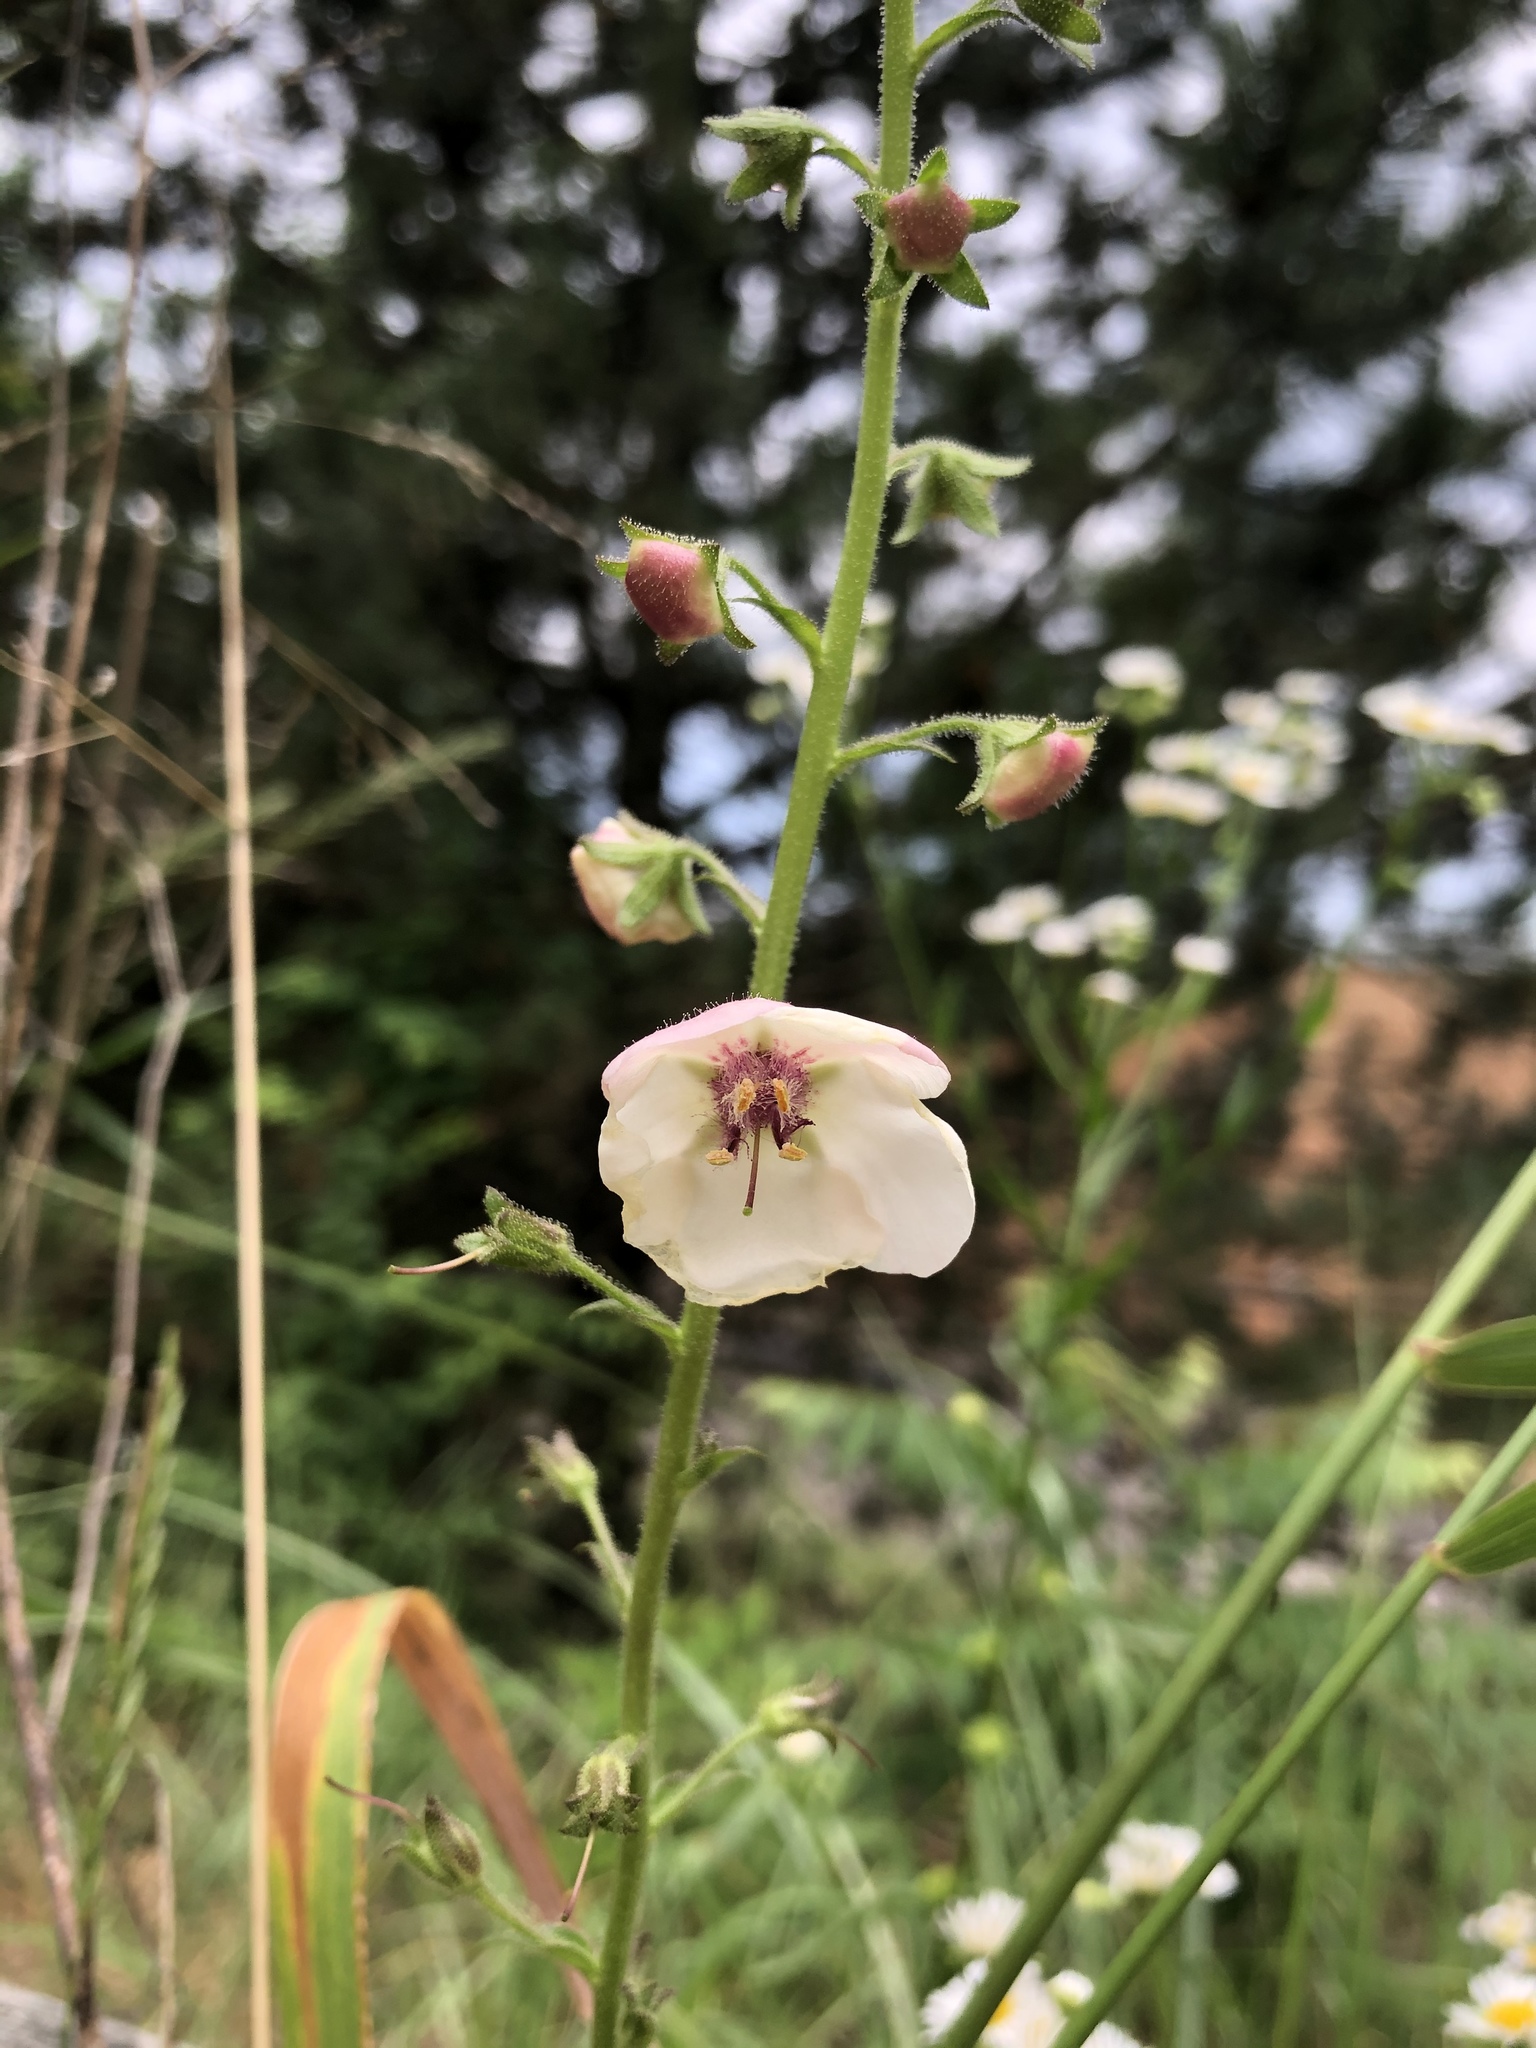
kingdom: Plantae
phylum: Tracheophyta
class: Magnoliopsida
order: Lamiales
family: Scrophulariaceae
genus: Verbascum
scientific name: Verbascum blattaria
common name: Moth mullein
